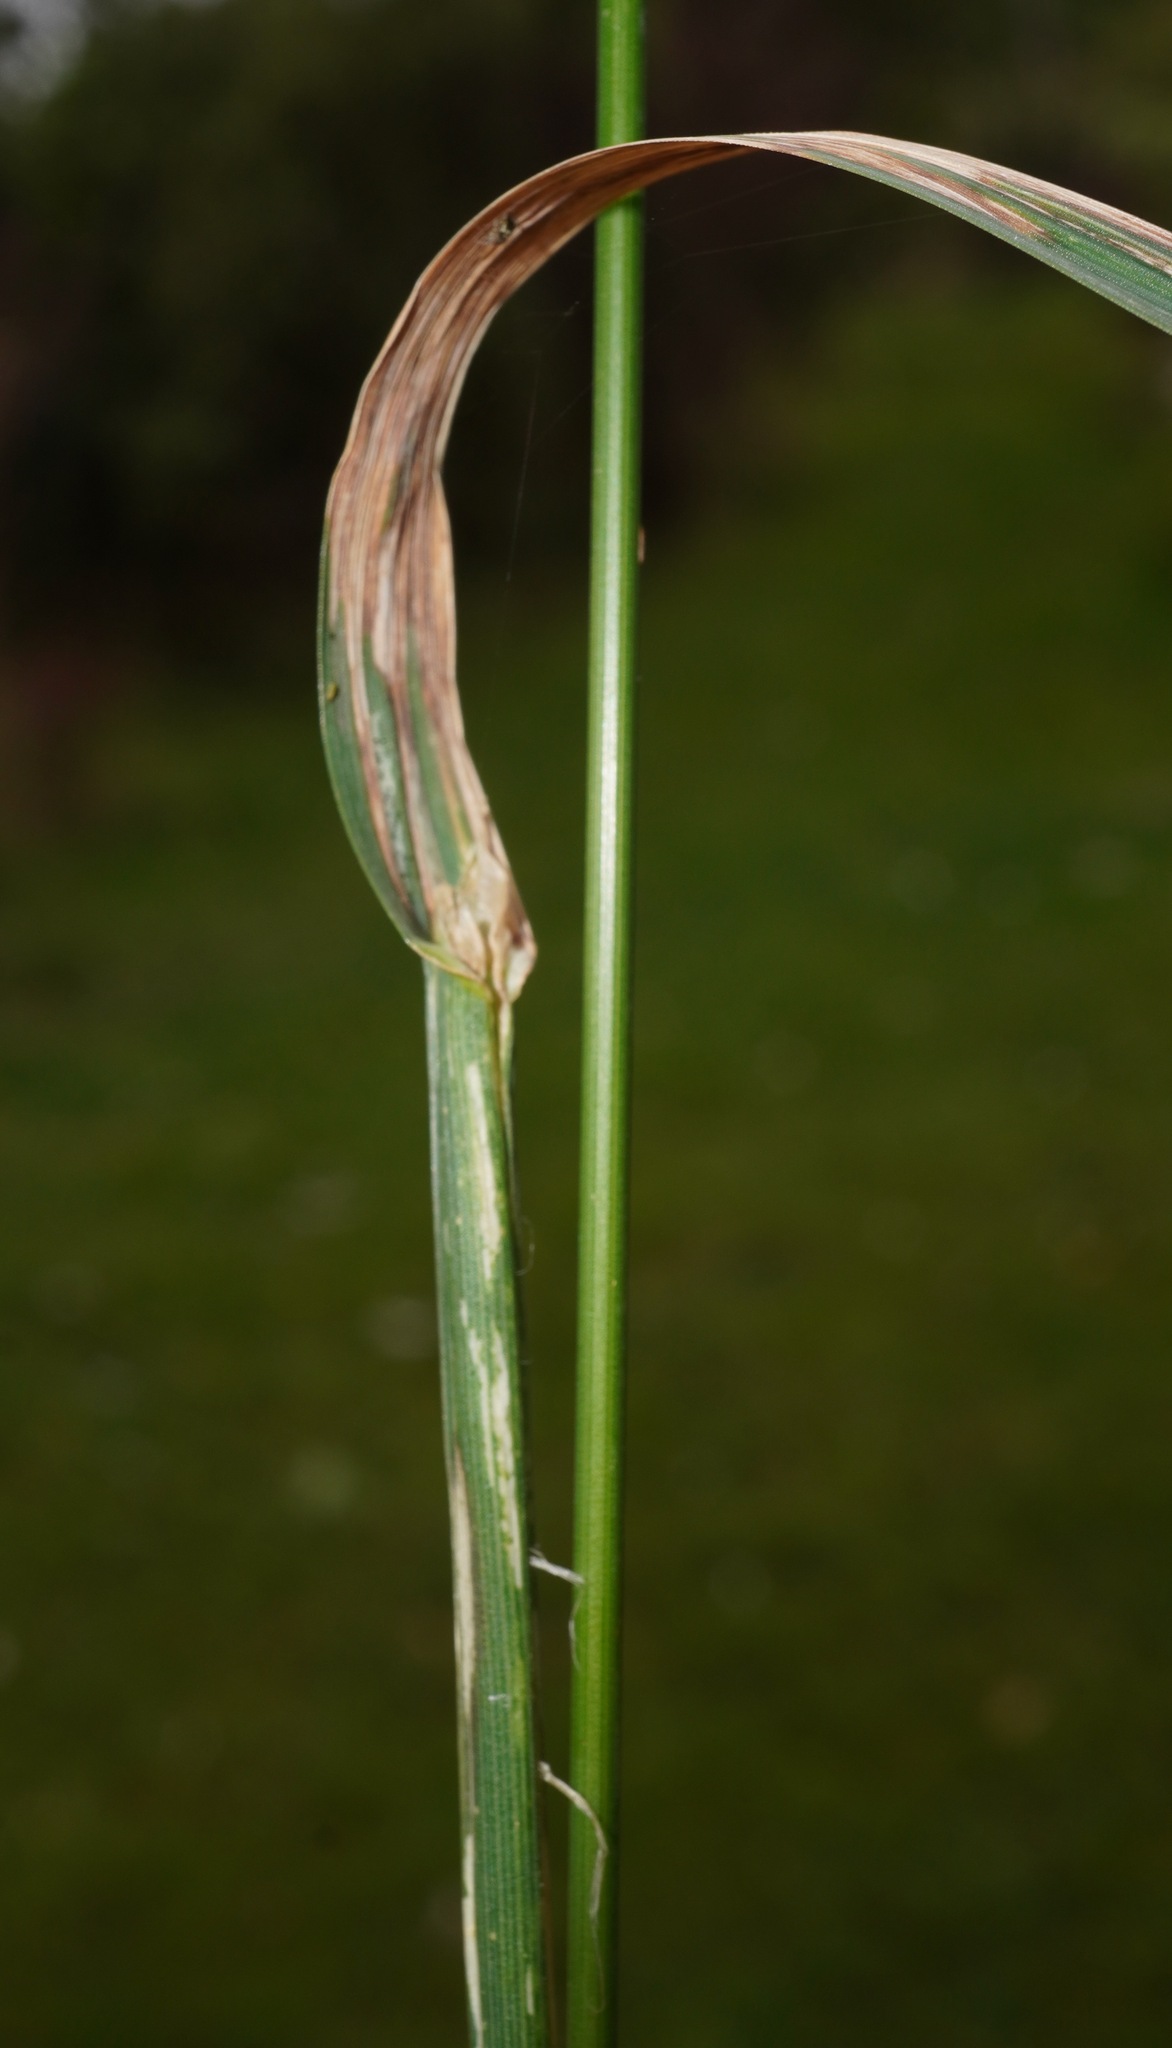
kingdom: Plantae
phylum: Tracheophyta
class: Liliopsida
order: Poales
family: Poaceae
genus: Dactylis
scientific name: Dactylis glomerata
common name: Orchardgrass
